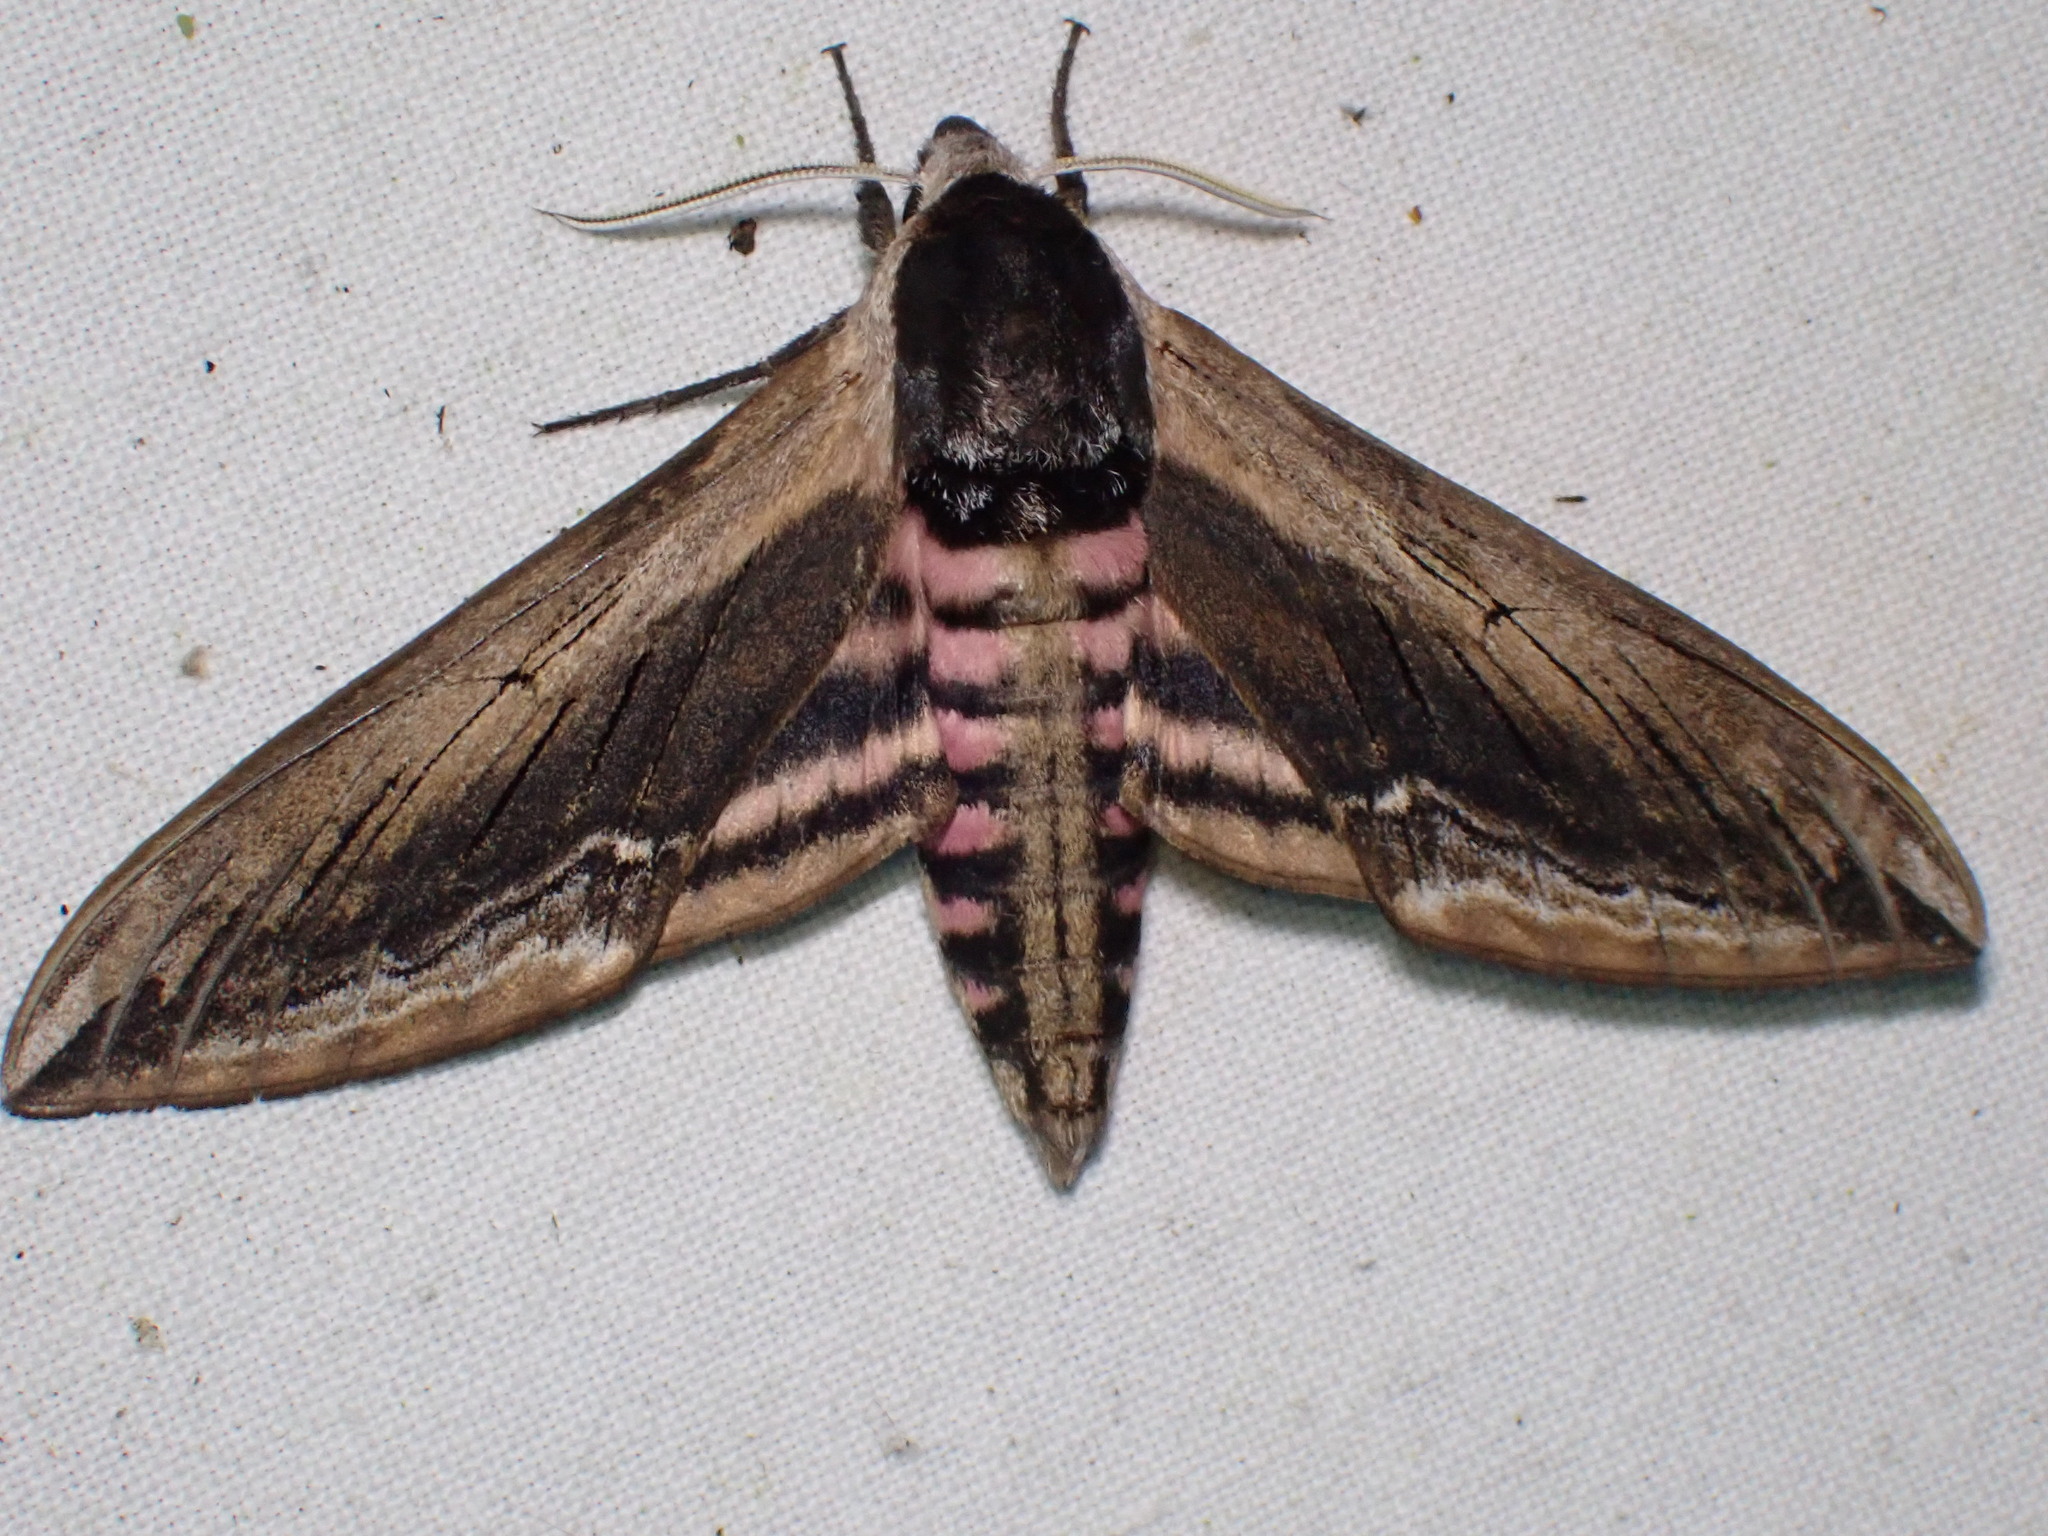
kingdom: Animalia
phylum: Arthropoda
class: Insecta
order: Lepidoptera
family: Sphingidae
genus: Sphinx
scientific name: Sphinx ligustri
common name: Privet hawk-moth
